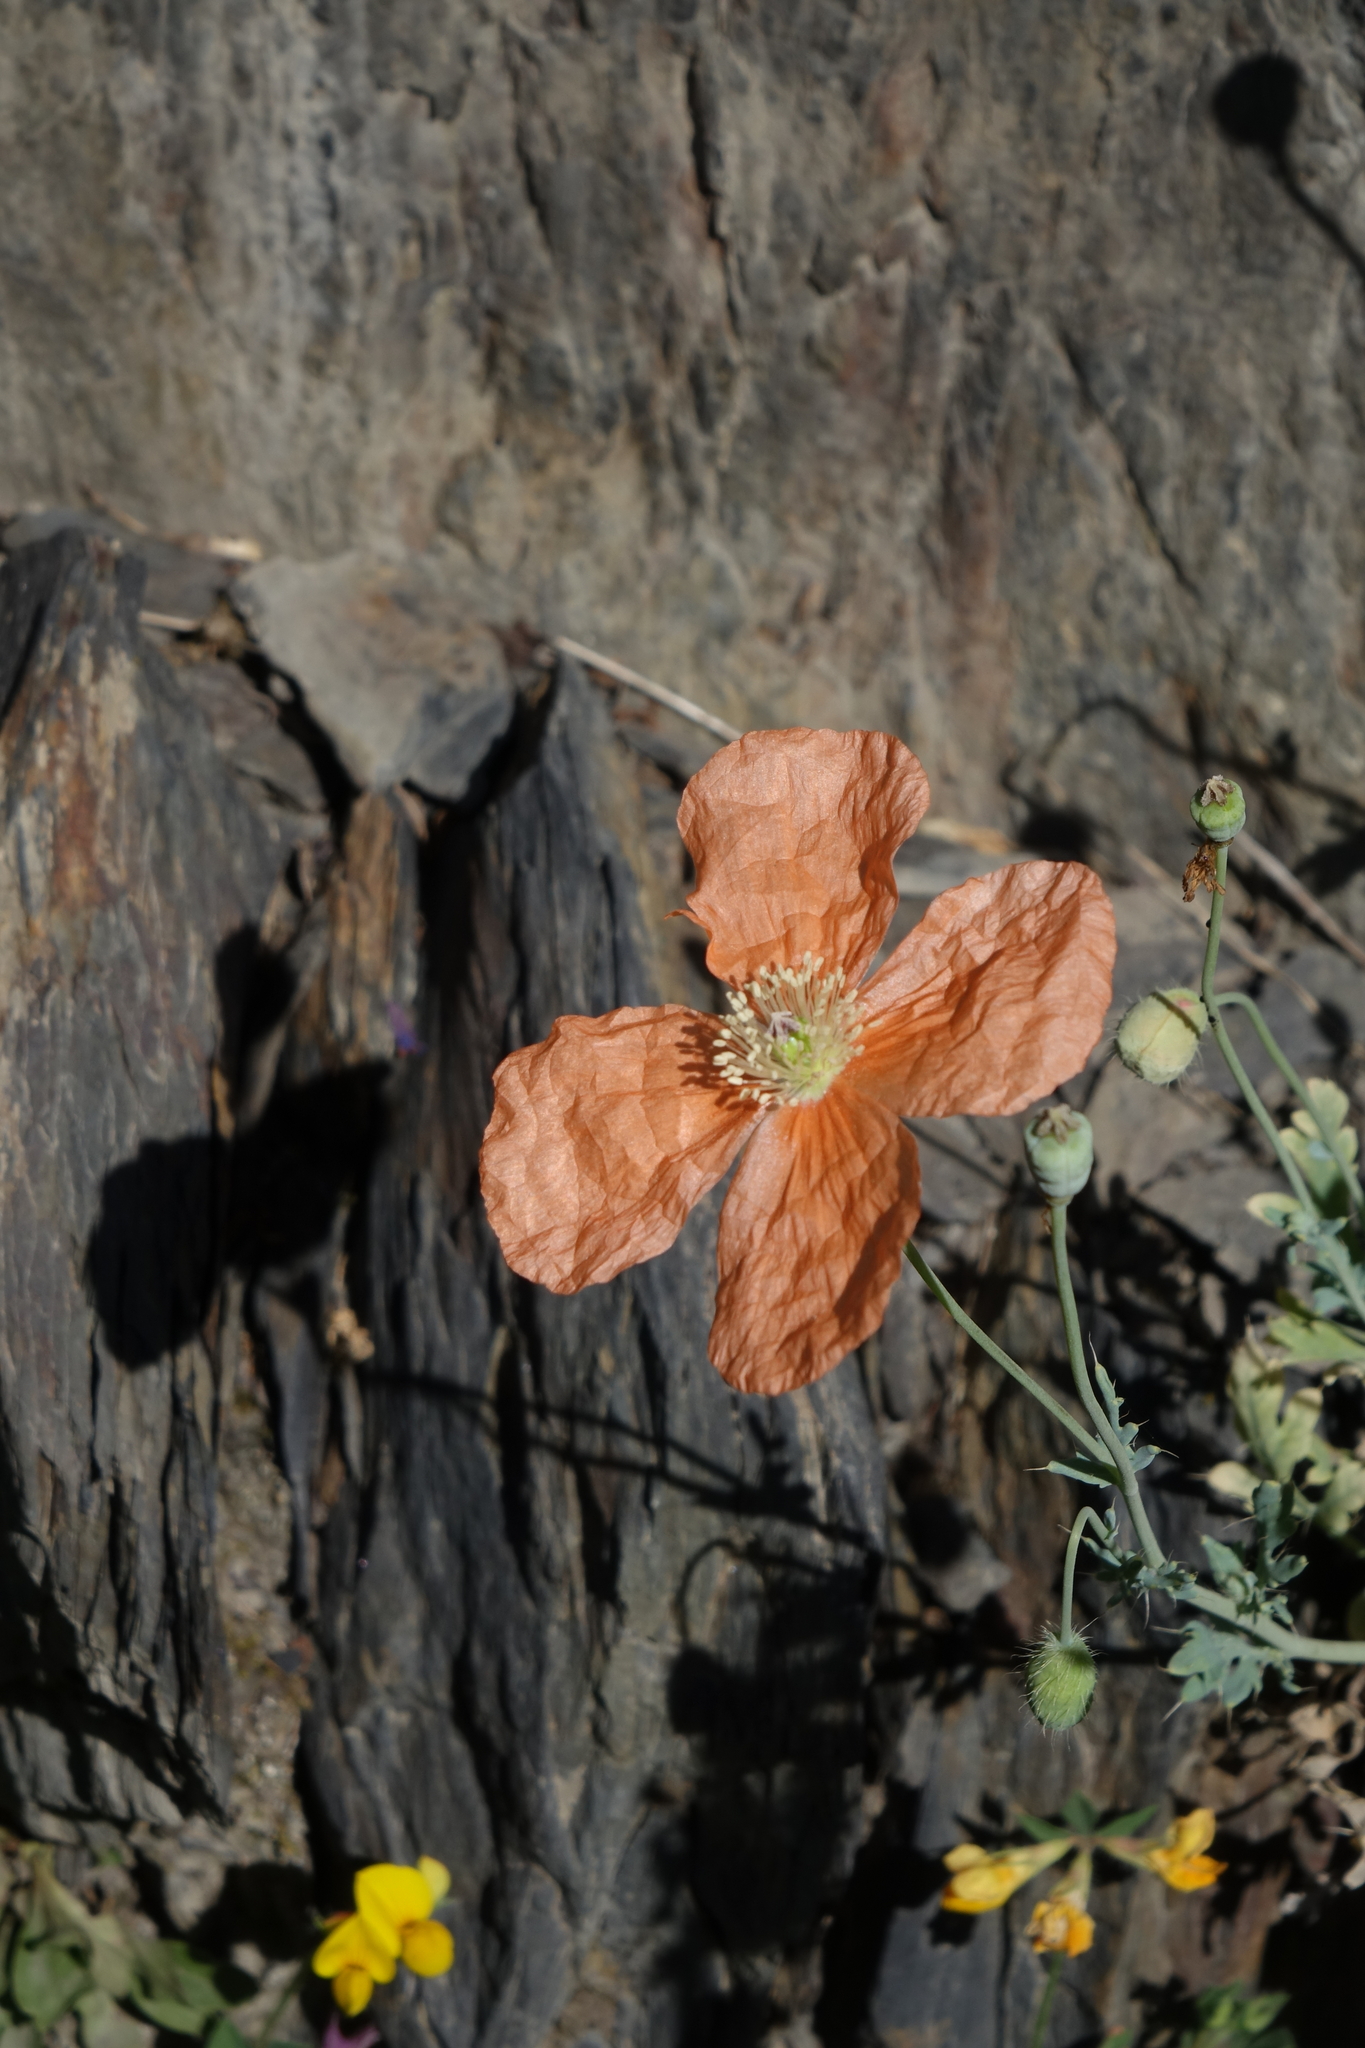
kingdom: Plantae
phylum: Tracheophyta
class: Magnoliopsida
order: Ranunculales
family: Papaveraceae
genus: Papaver
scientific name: Papaver armeniacum
